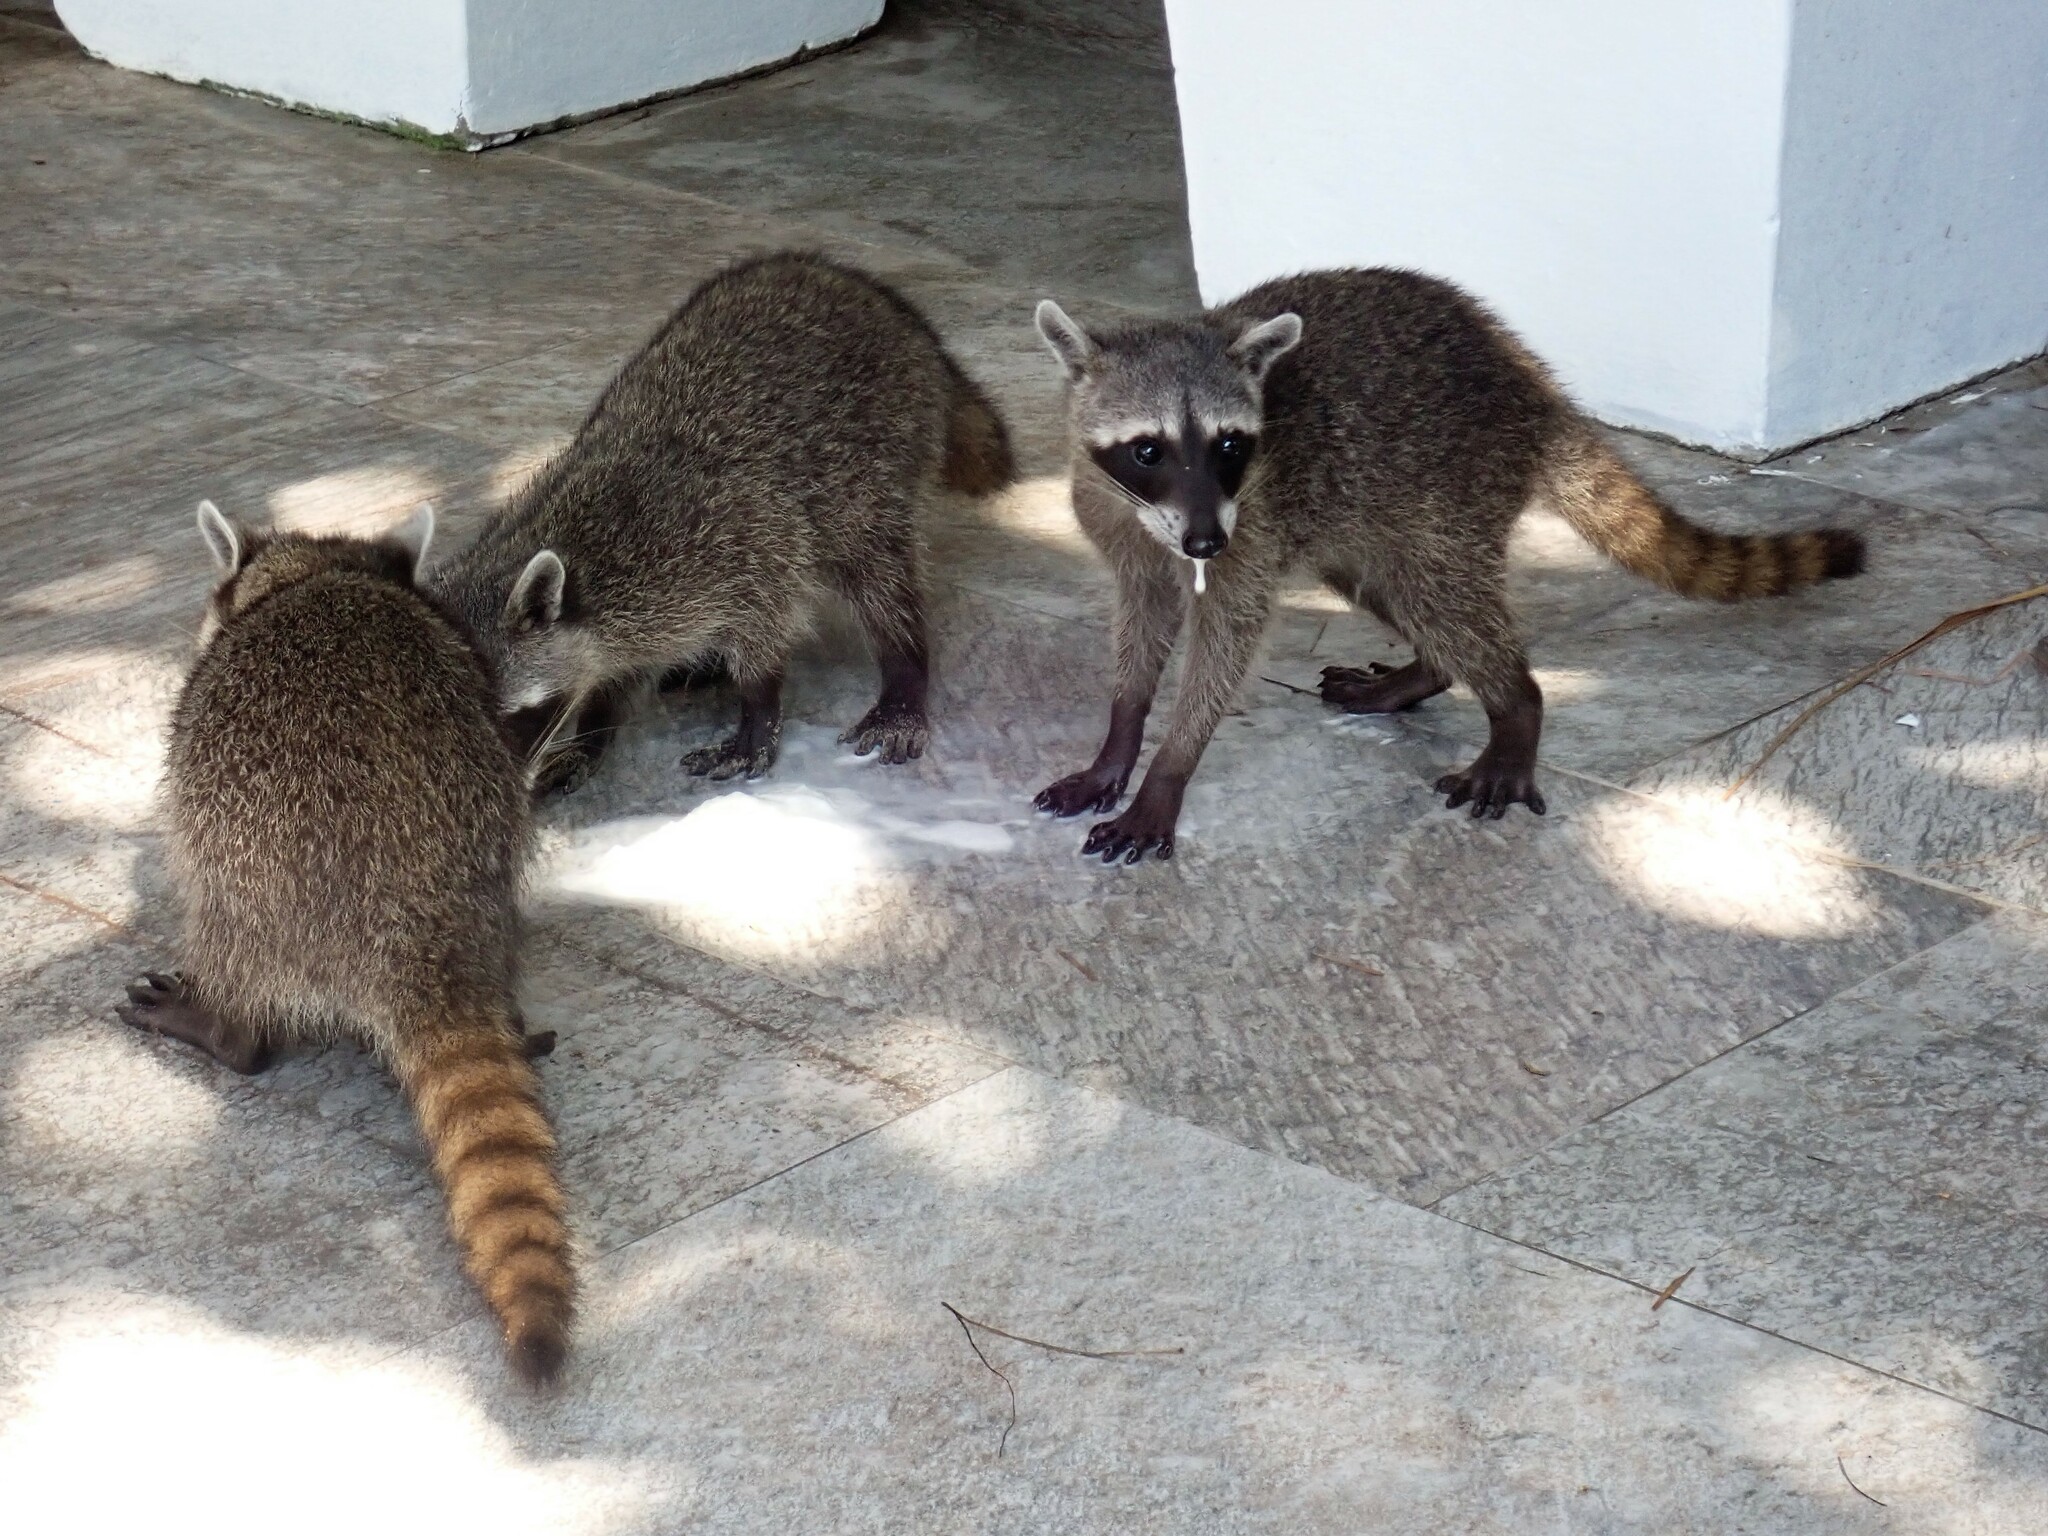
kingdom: Animalia
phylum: Chordata
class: Mammalia
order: Carnivora
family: Procyonidae
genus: Procyon
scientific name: Procyon lotor
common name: Raccoon
